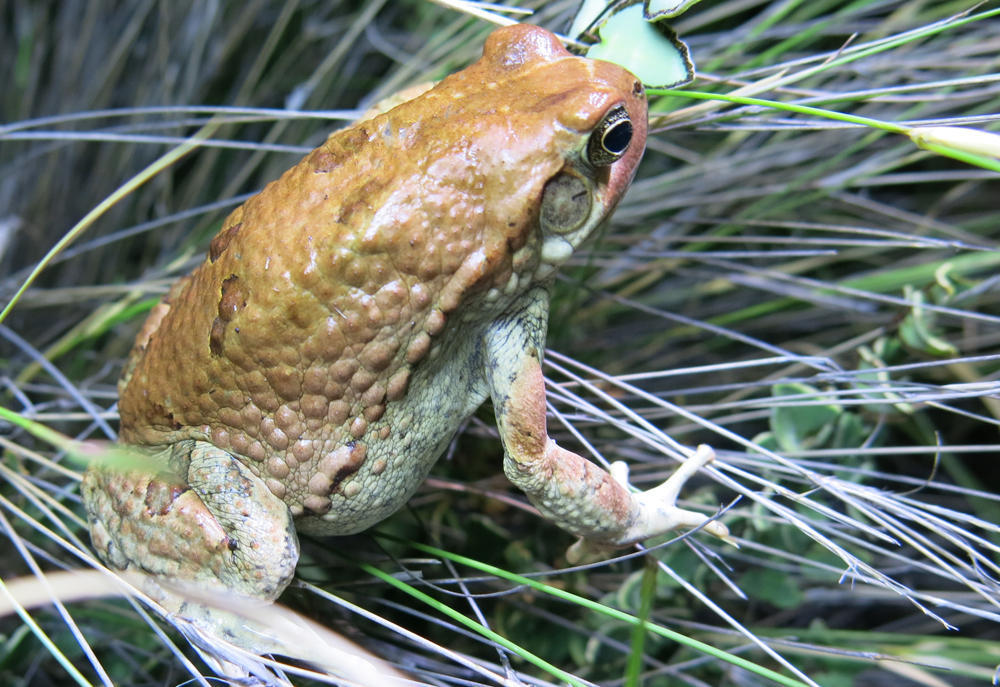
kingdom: Animalia
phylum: Chordata
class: Amphibia
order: Anura
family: Bufonidae
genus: Schismaderma
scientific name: Schismaderma carens
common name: African split-skin toad
